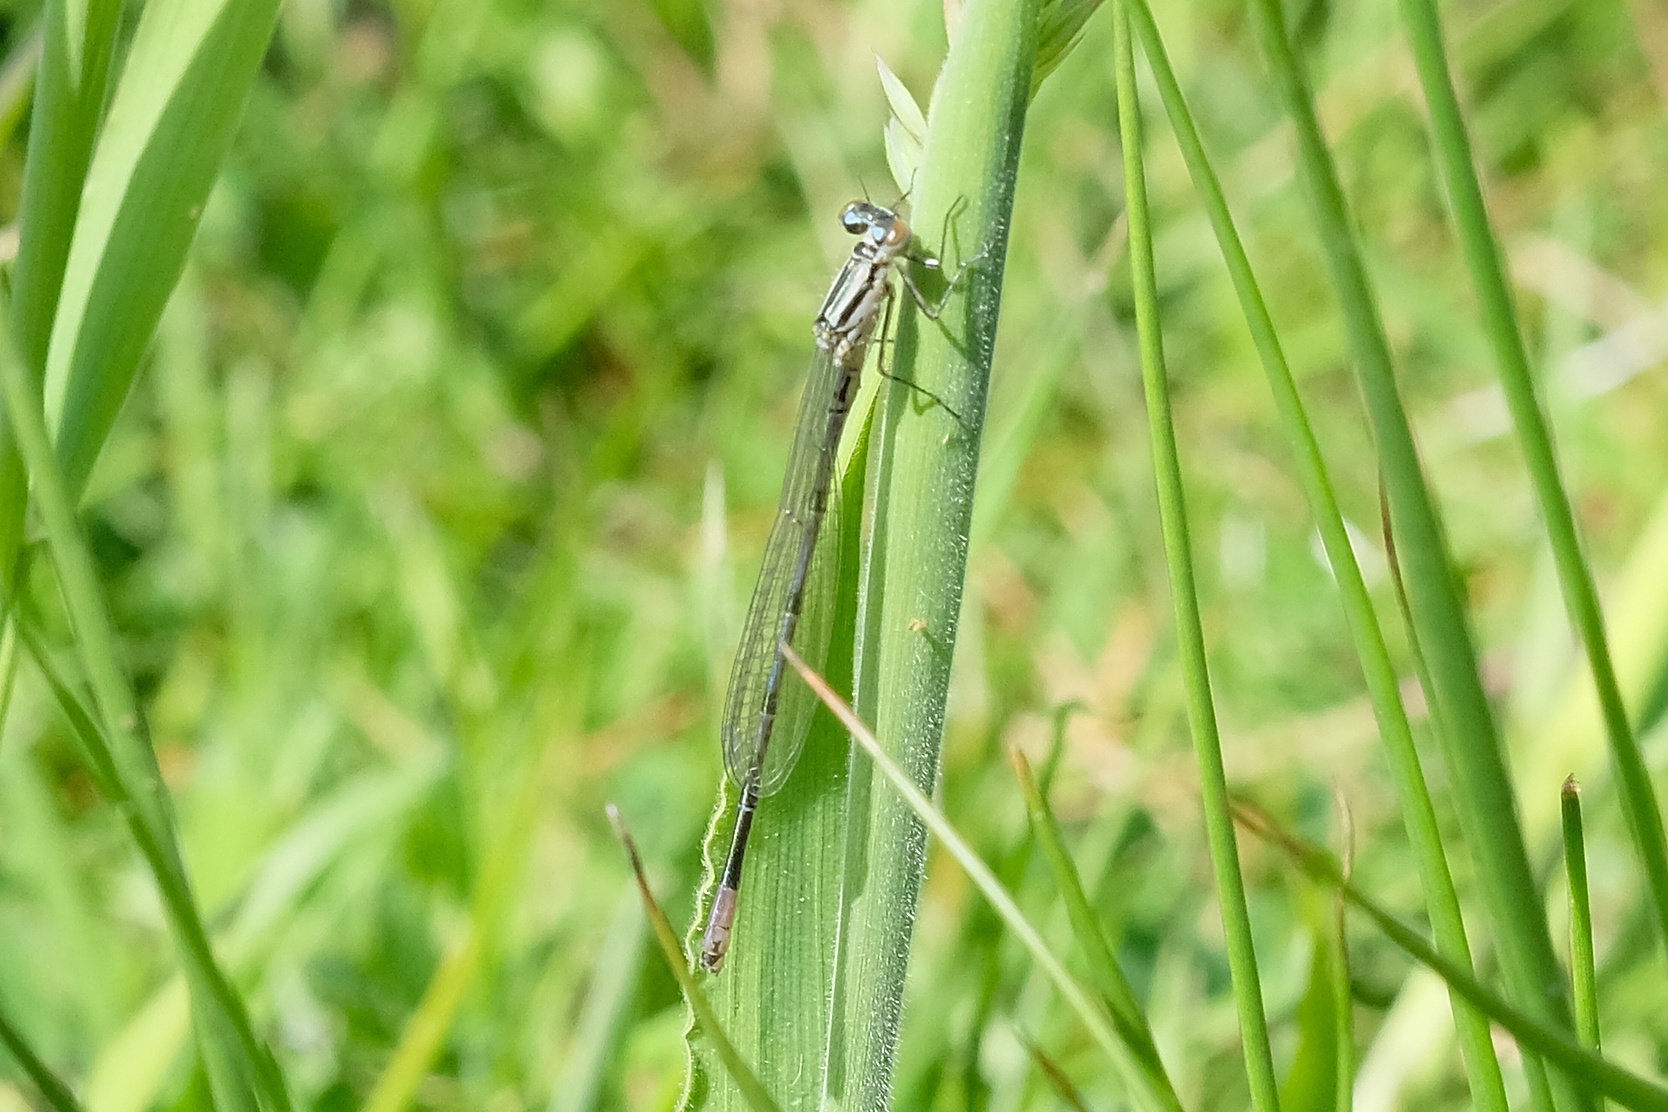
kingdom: Animalia
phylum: Arthropoda
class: Insecta
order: Odonata
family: Coenagrionidae
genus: Coenagrion
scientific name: Coenagrion puella
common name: Azure damselfly
